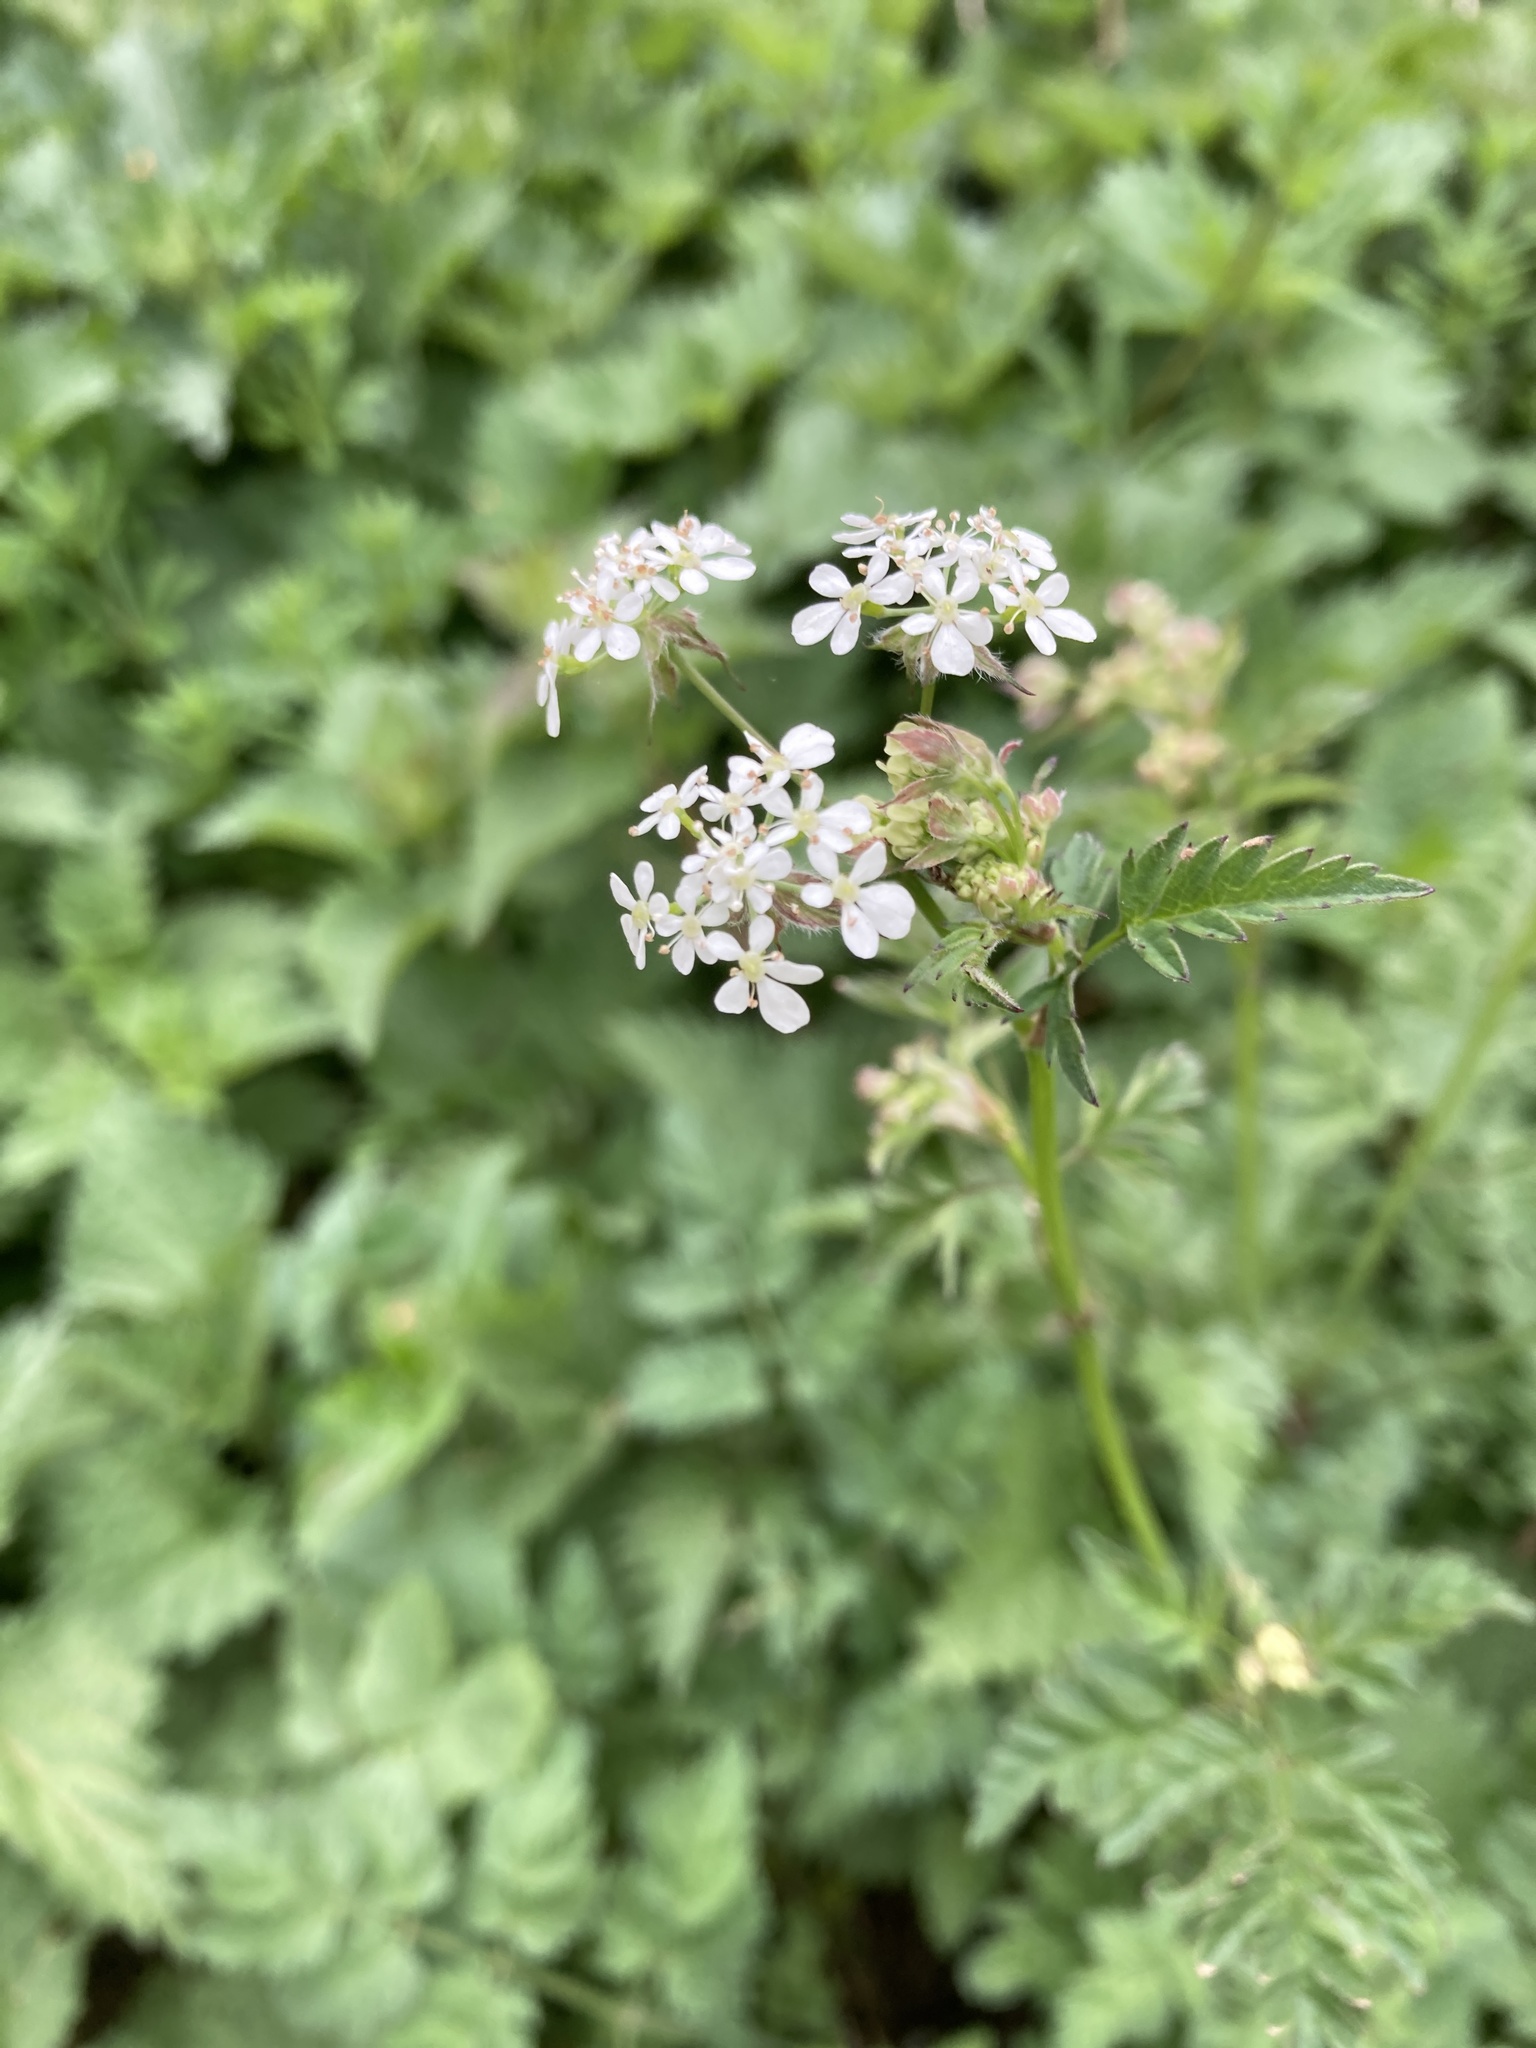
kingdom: Plantae
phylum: Tracheophyta
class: Magnoliopsida
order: Apiales
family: Apiaceae
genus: Anthriscus
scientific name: Anthriscus sylvestris
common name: Cow parsley
